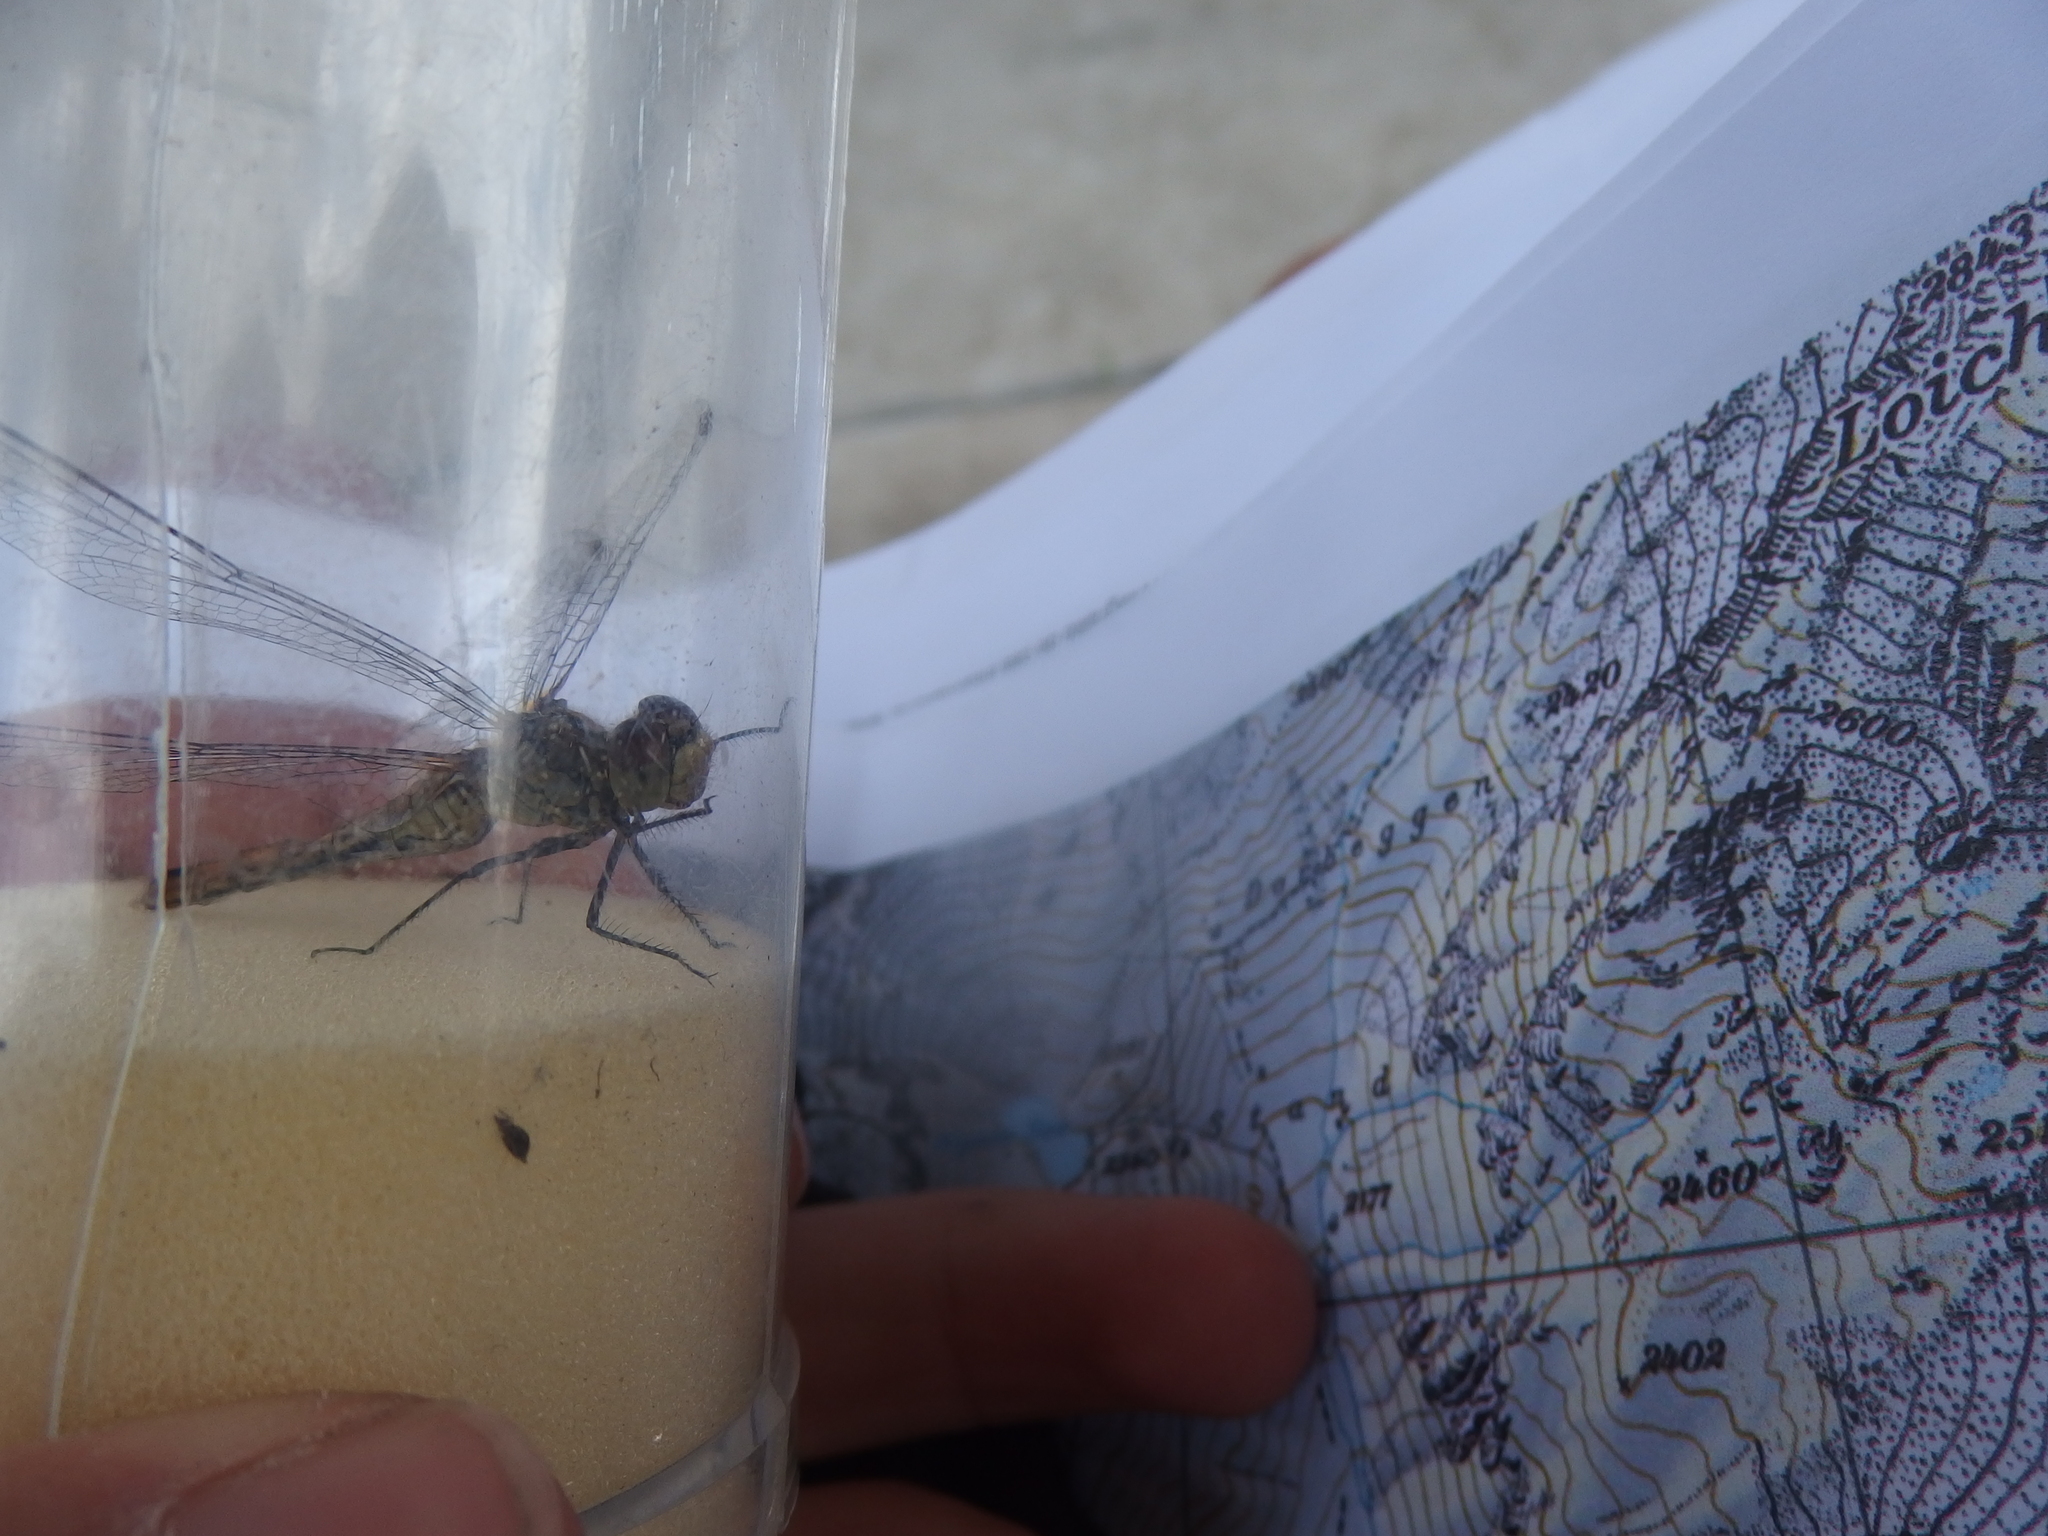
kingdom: Animalia
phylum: Arthropoda
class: Insecta
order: Odonata
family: Libellulidae
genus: Sympetrum
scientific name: Sympetrum sanguineum
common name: Ruddy darter
